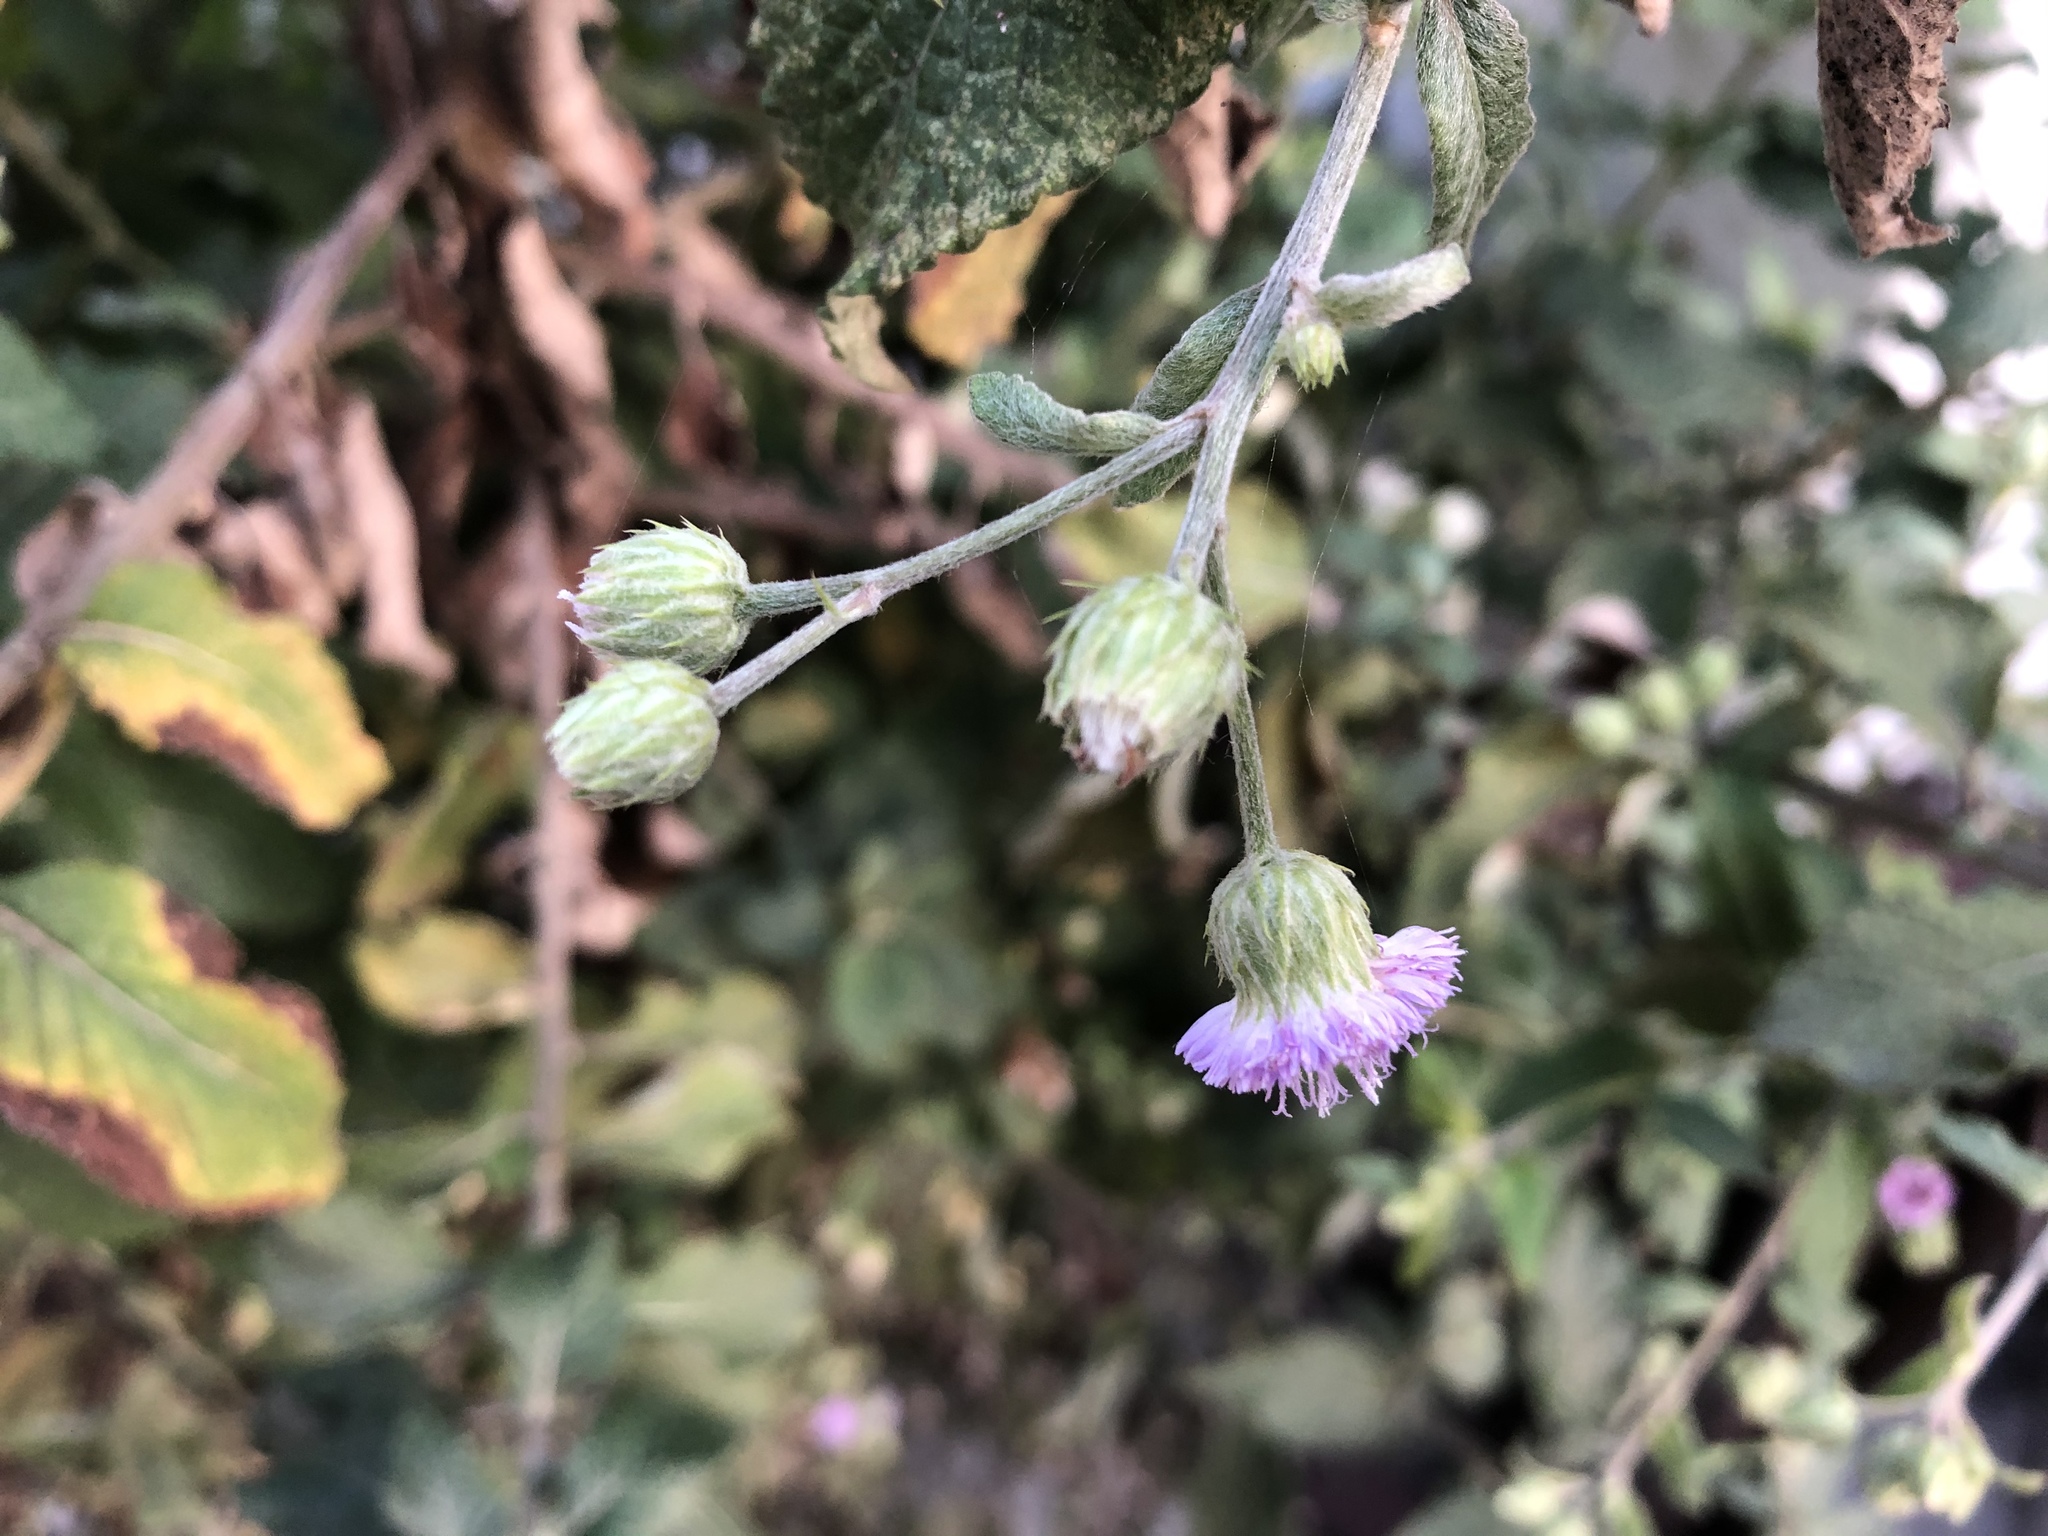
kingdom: Plantae
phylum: Tracheophyta
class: Magnoliopsida
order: Asterales
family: Asteraceae
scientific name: Asteraceae
